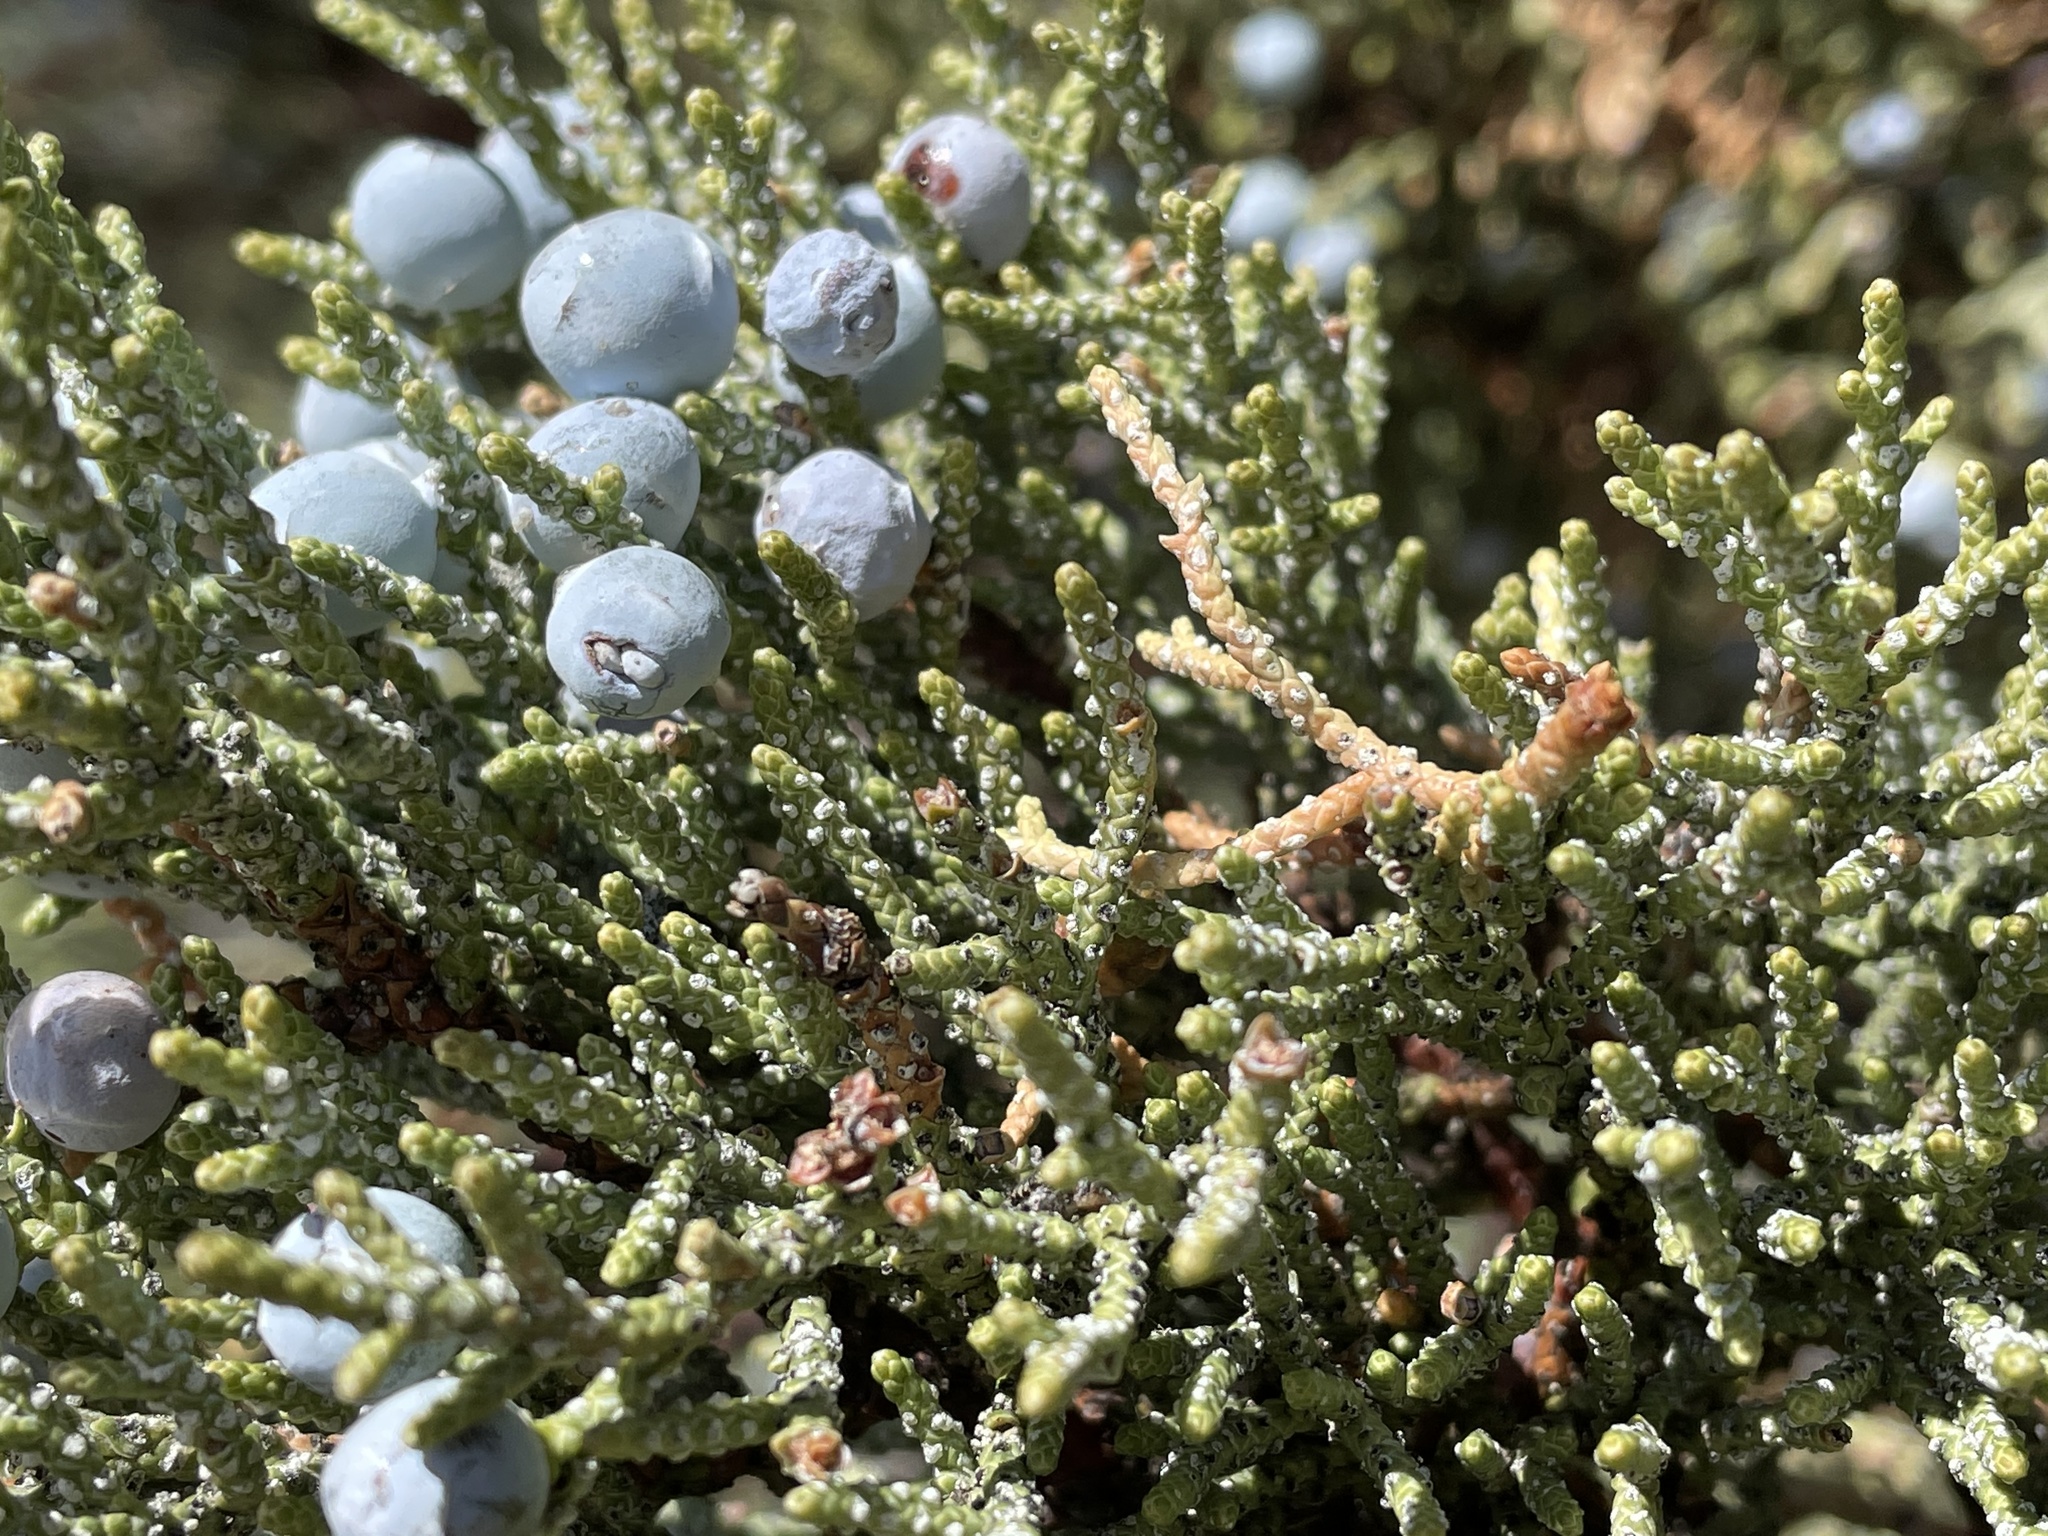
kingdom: Plantae
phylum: Tracheophyta
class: Pinopsida
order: Pinales
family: Cupressaceae
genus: Juniperus
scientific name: Juniperus occidentalis
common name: Western juniper
